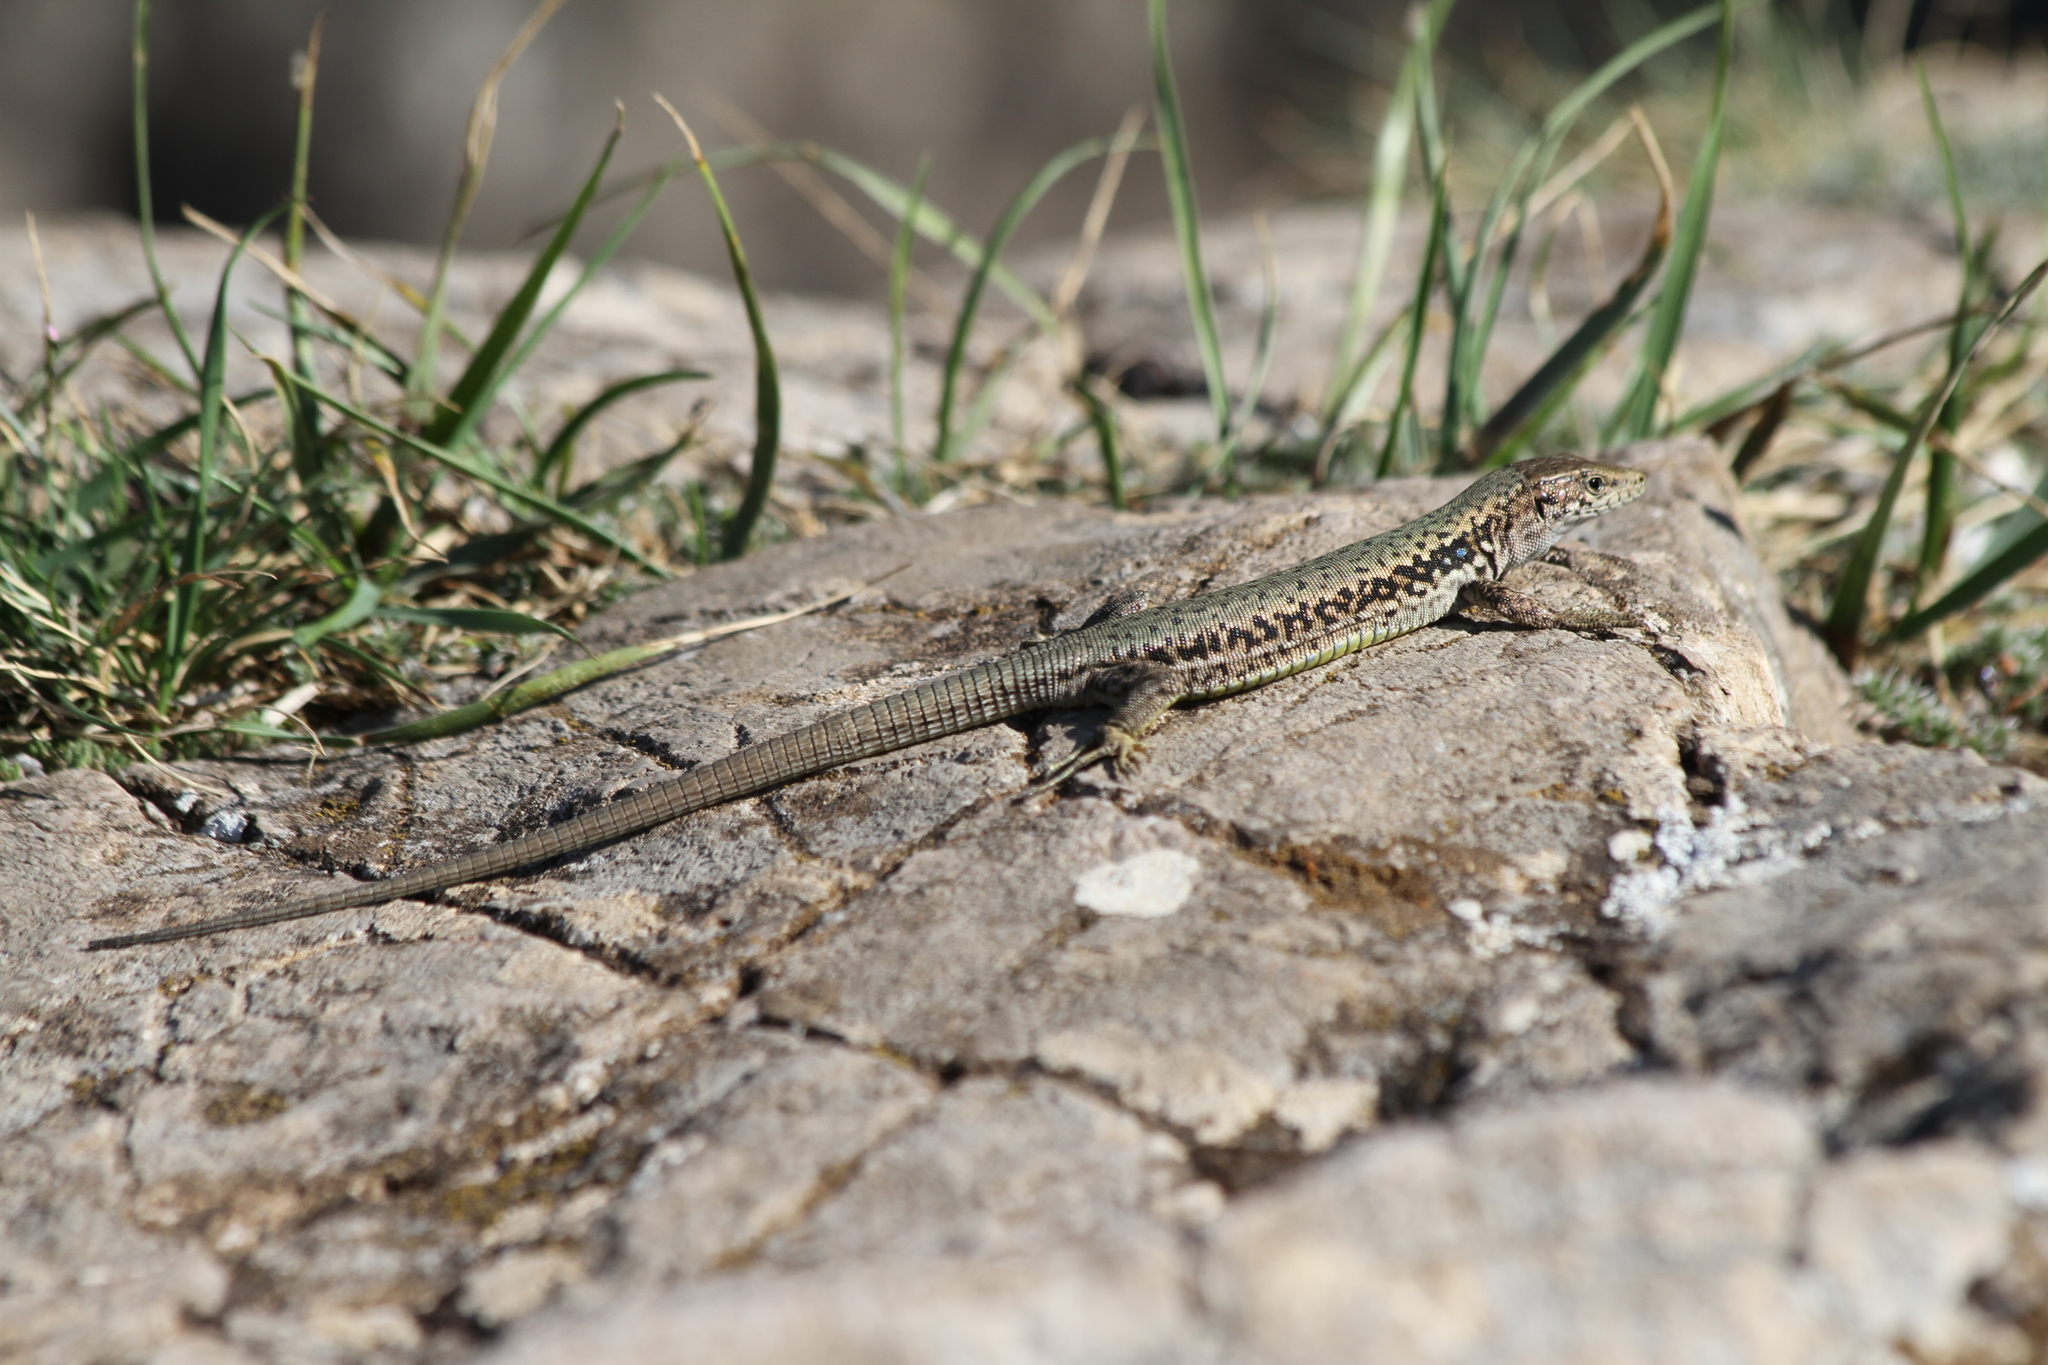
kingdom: Animalia
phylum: Chordata
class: Squamata
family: Lacertidae
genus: Darevskia
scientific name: Darevskia lindholmi
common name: Crimean rock lizard
